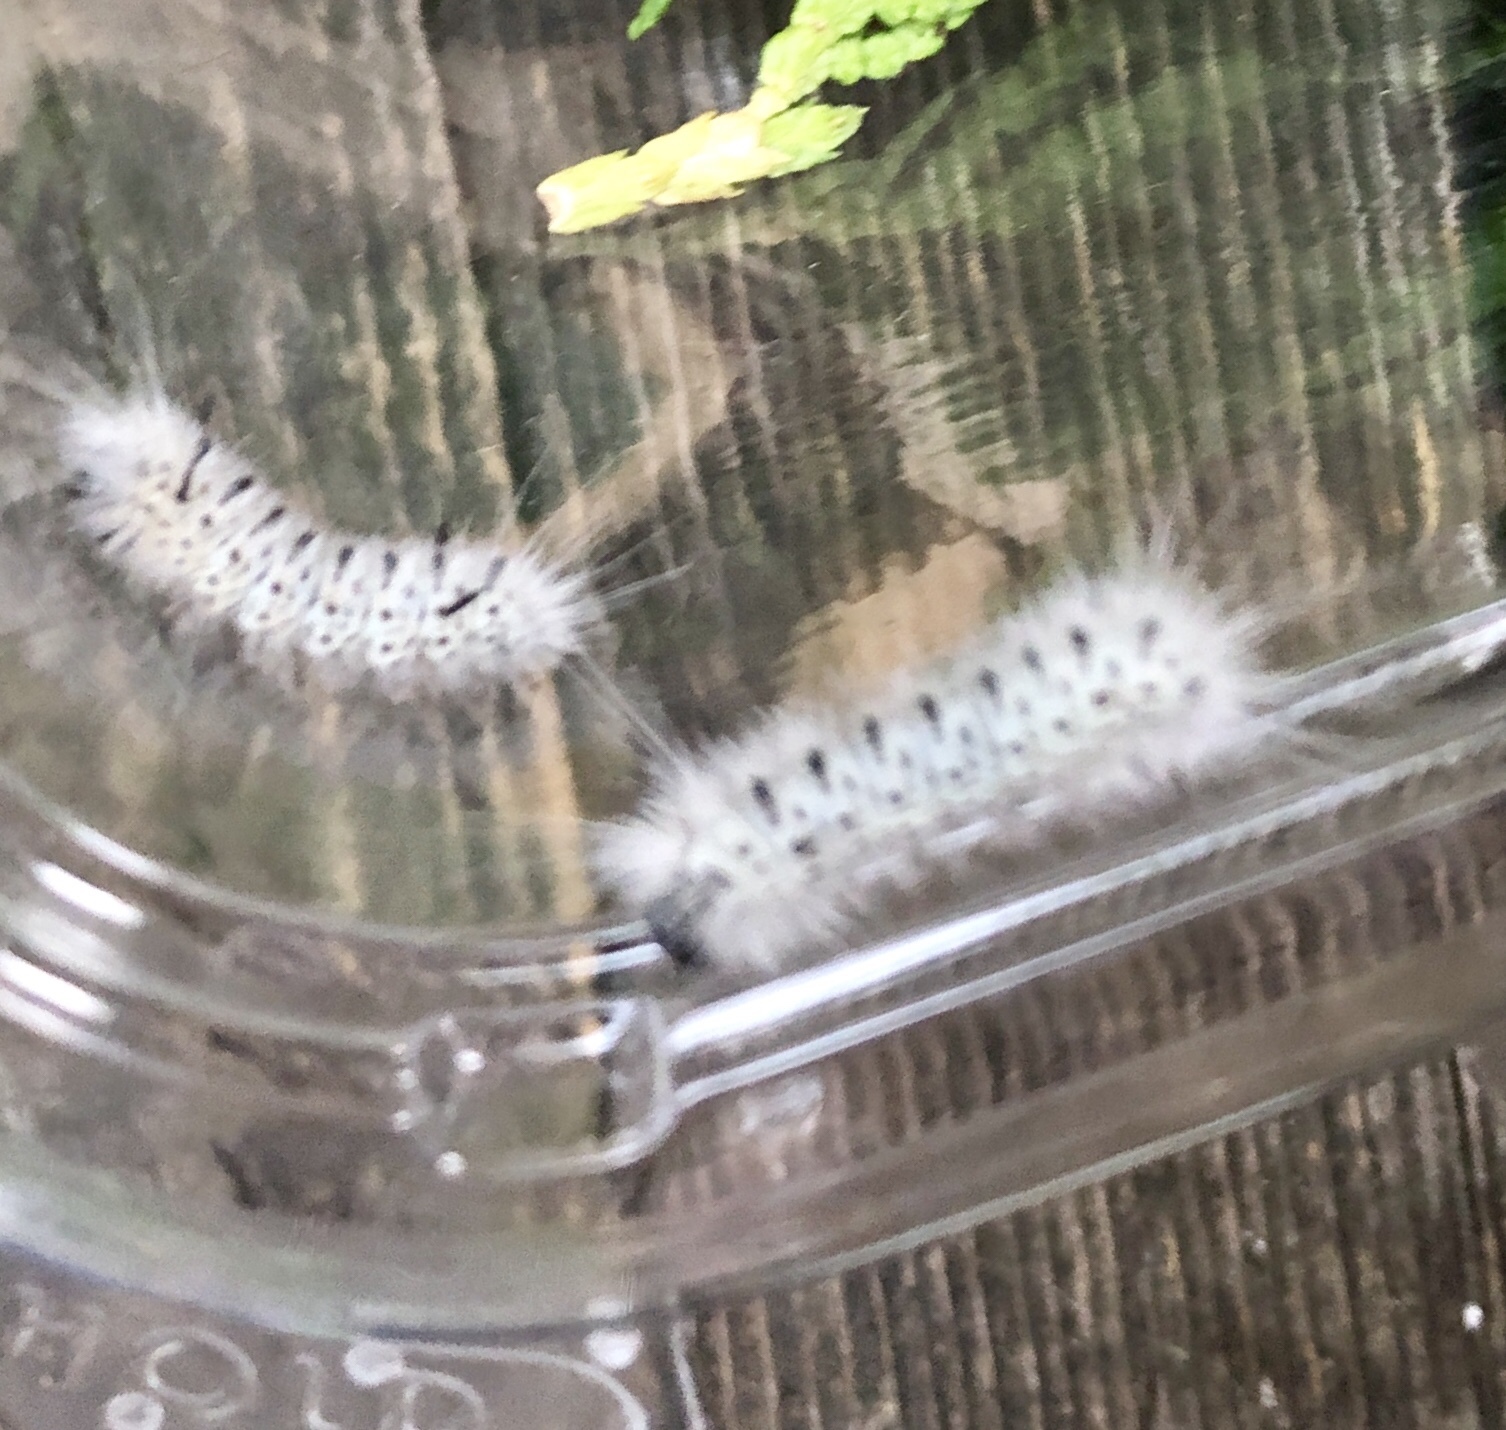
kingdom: Animalia
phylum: Arthropoda
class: Insecta
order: Lepidoptera
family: Erebidae
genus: Lophocampa
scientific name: Lophocampa caryae
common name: Hickory tussock moth
